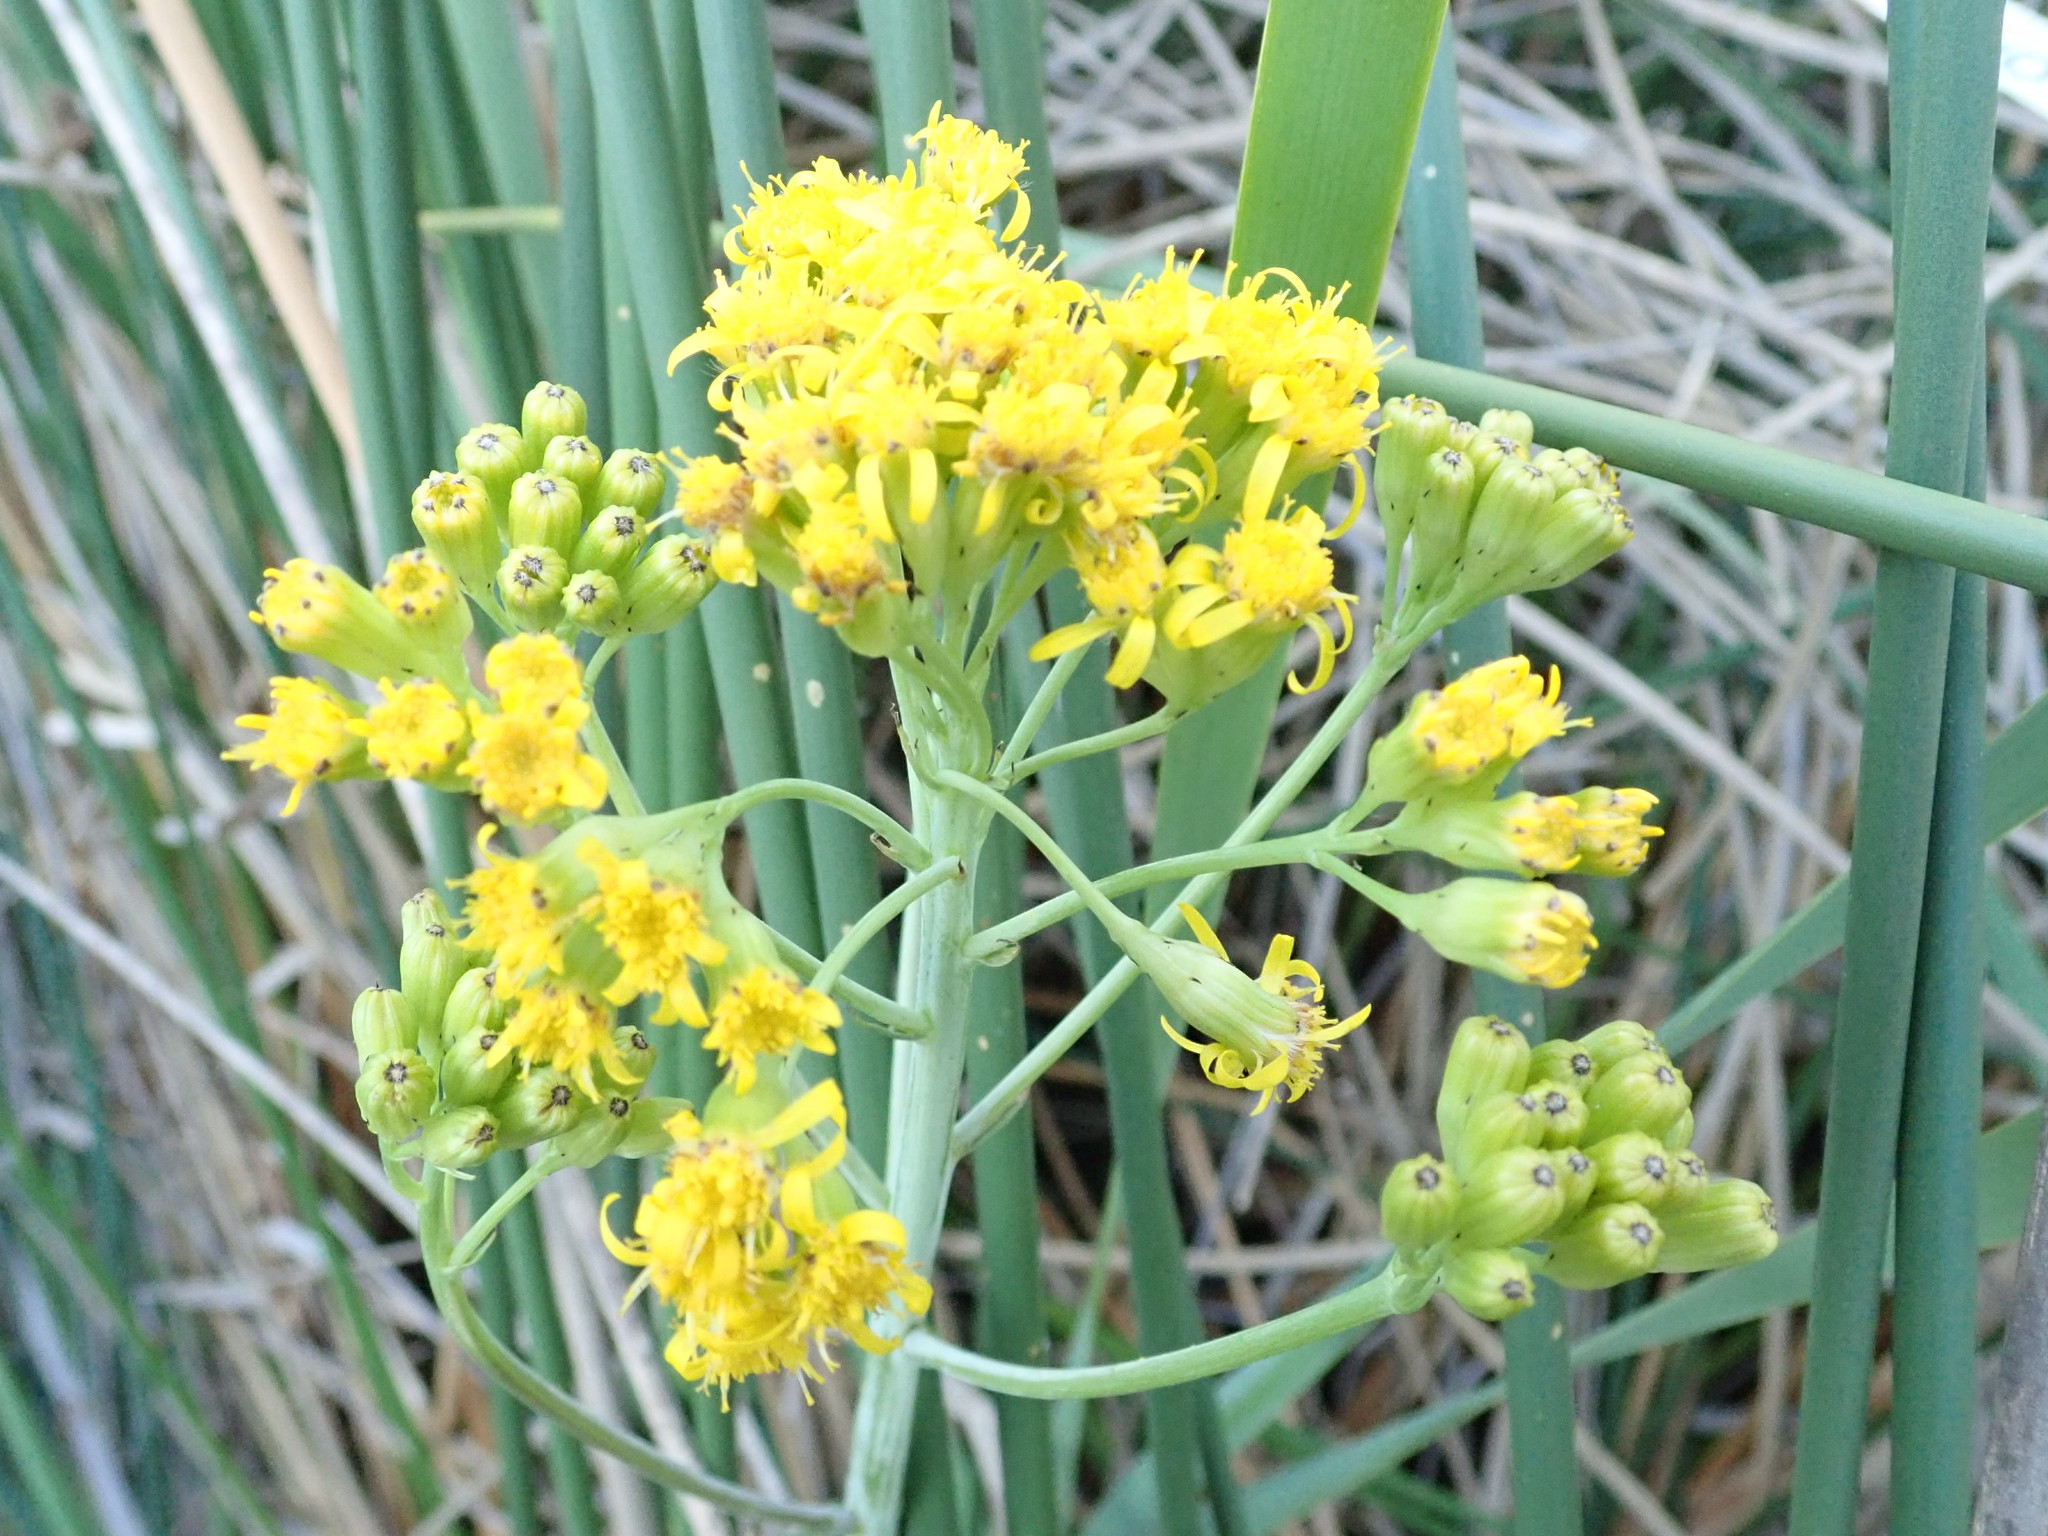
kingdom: Plantae
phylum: Tracheophyta
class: Magnoliopsida
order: Asterales
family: Asteraceae
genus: Senecio
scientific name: Senecio hydrophilus
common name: Water ragwort
